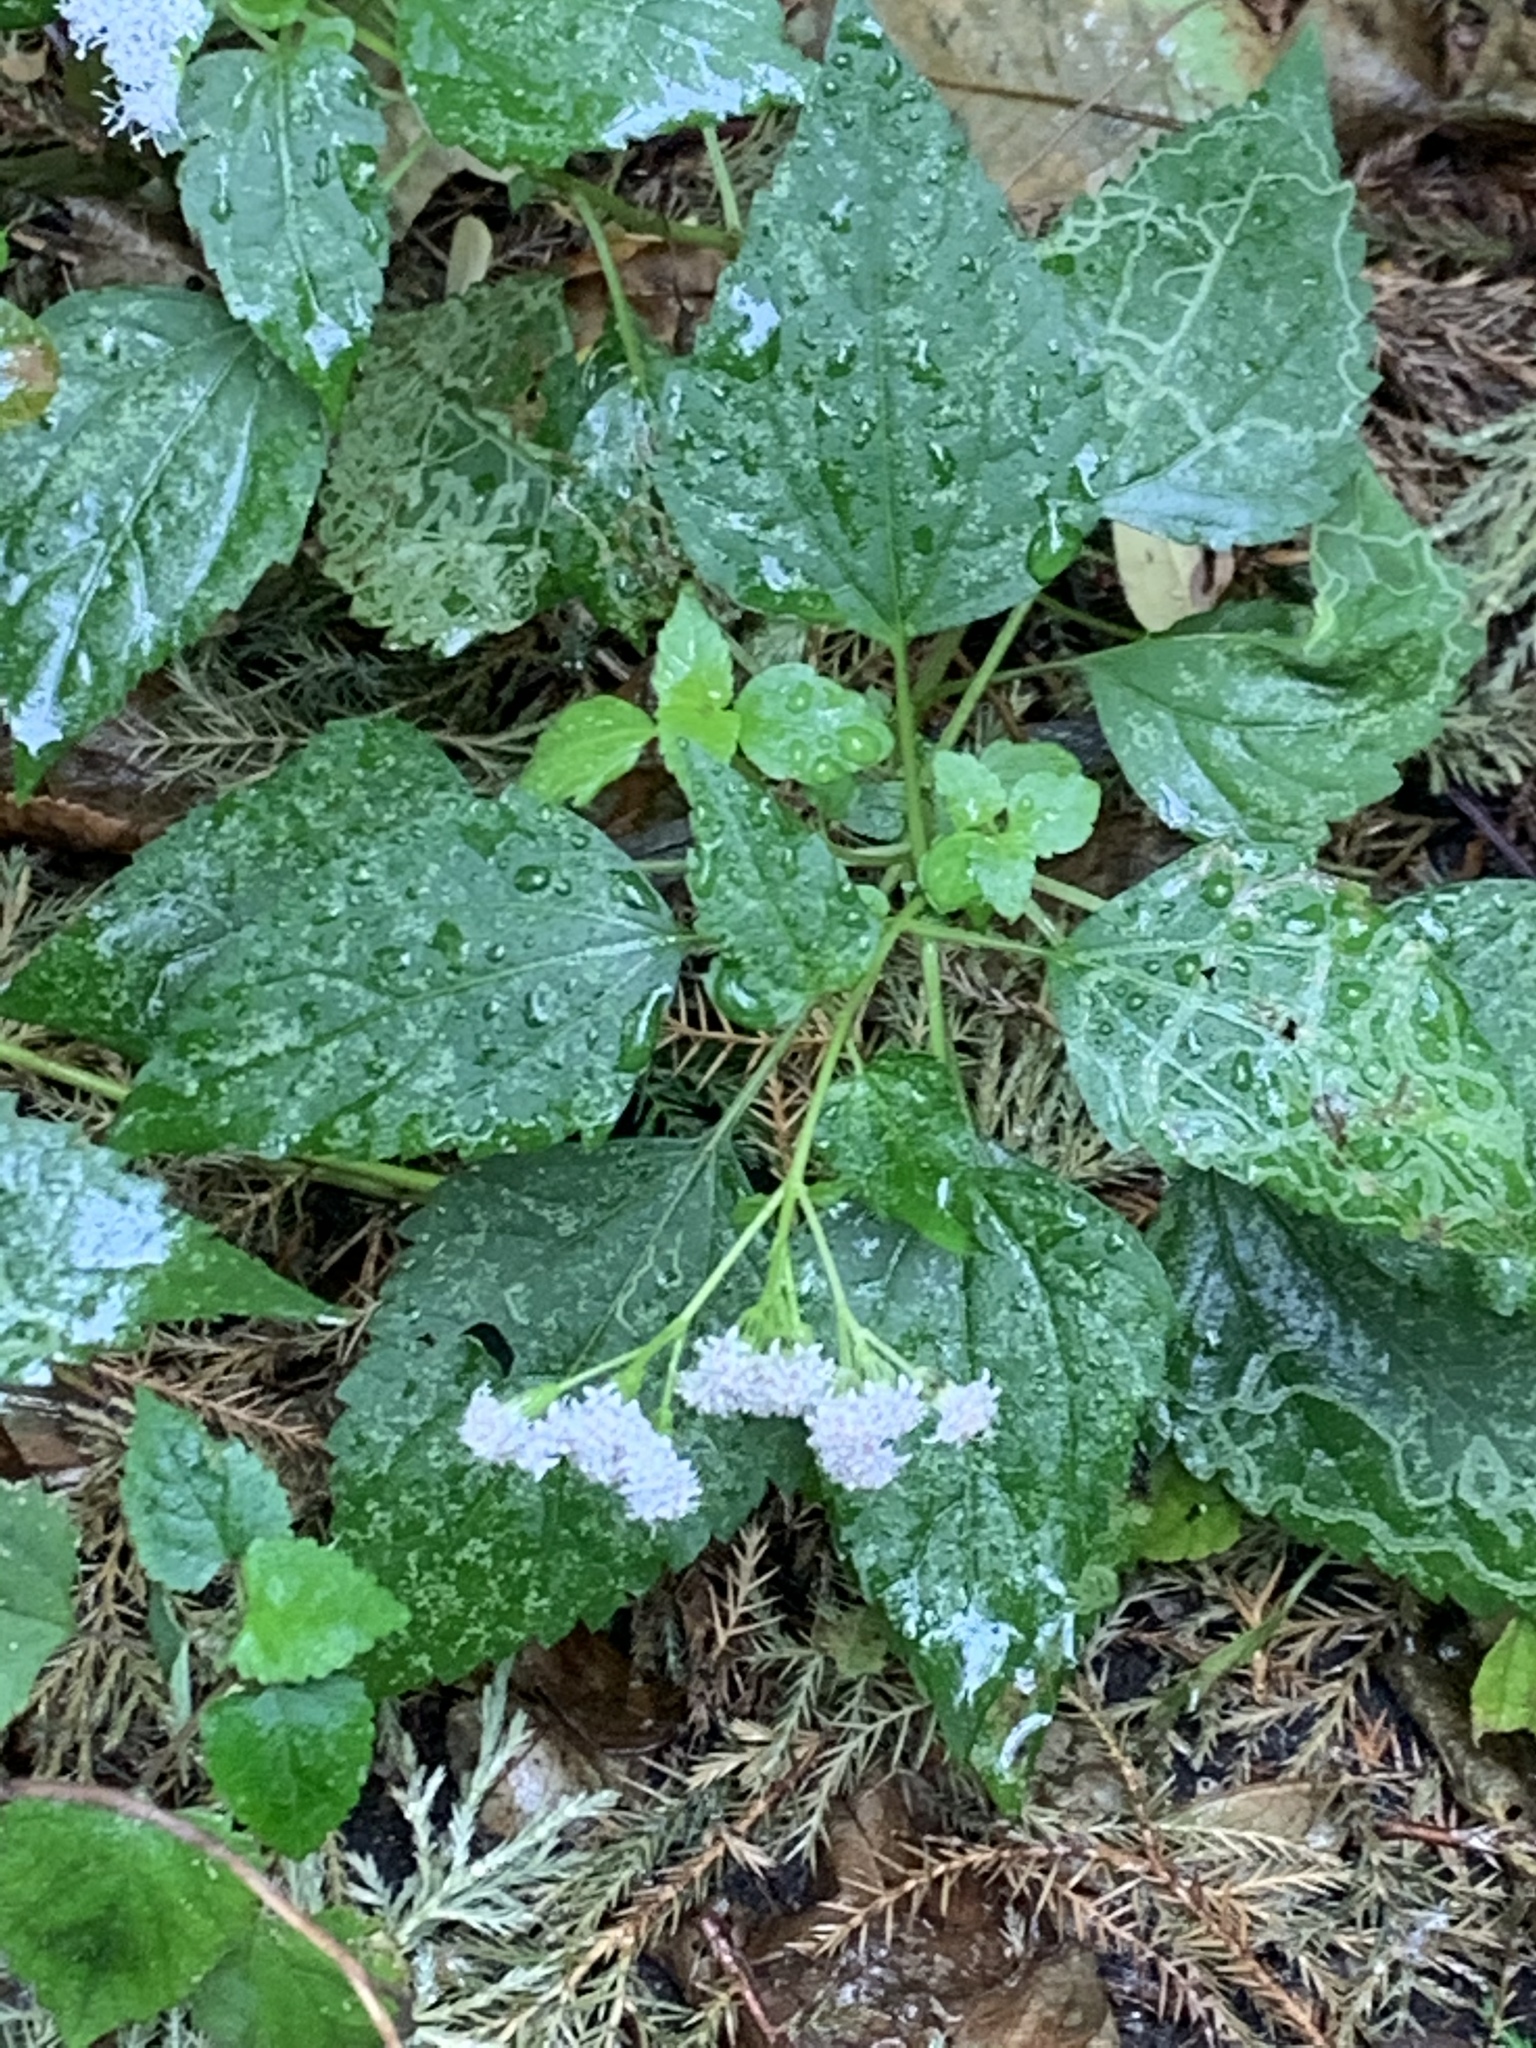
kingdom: Plantae
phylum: Tracheophyta
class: Magnoliopsida
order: Asterales
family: Asteraceae
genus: Ageratina
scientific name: Ageratina altissima
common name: White snakeroot
